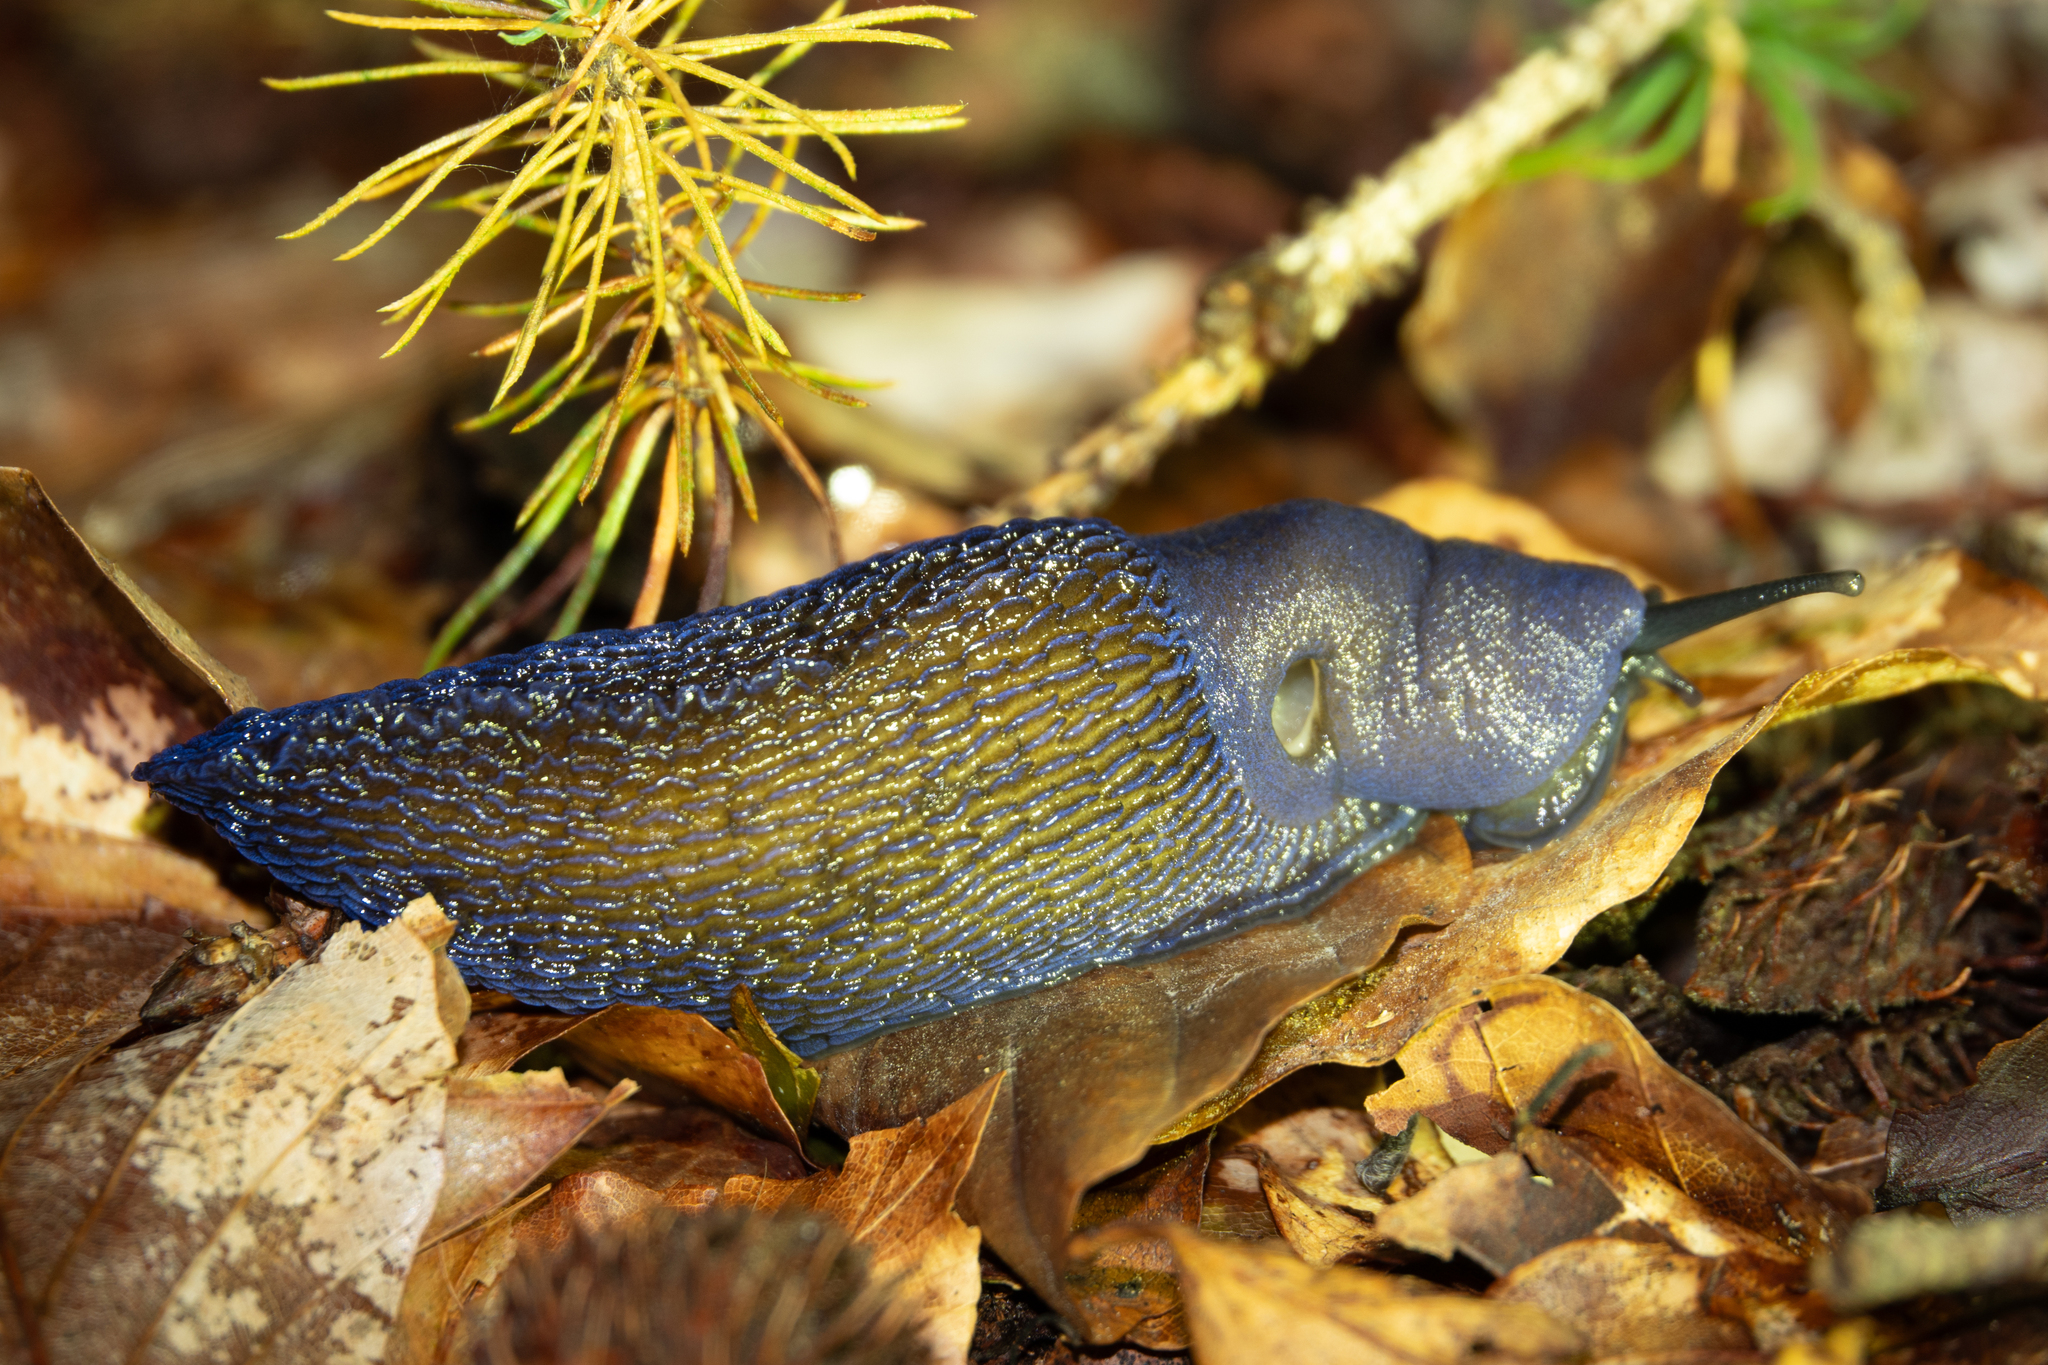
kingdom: Animalia
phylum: Mollusca
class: Gastropoda
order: Stylommatophora
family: Limacidae
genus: Bielzia
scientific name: Bielzia coerulans
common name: Carpathian blue slug
